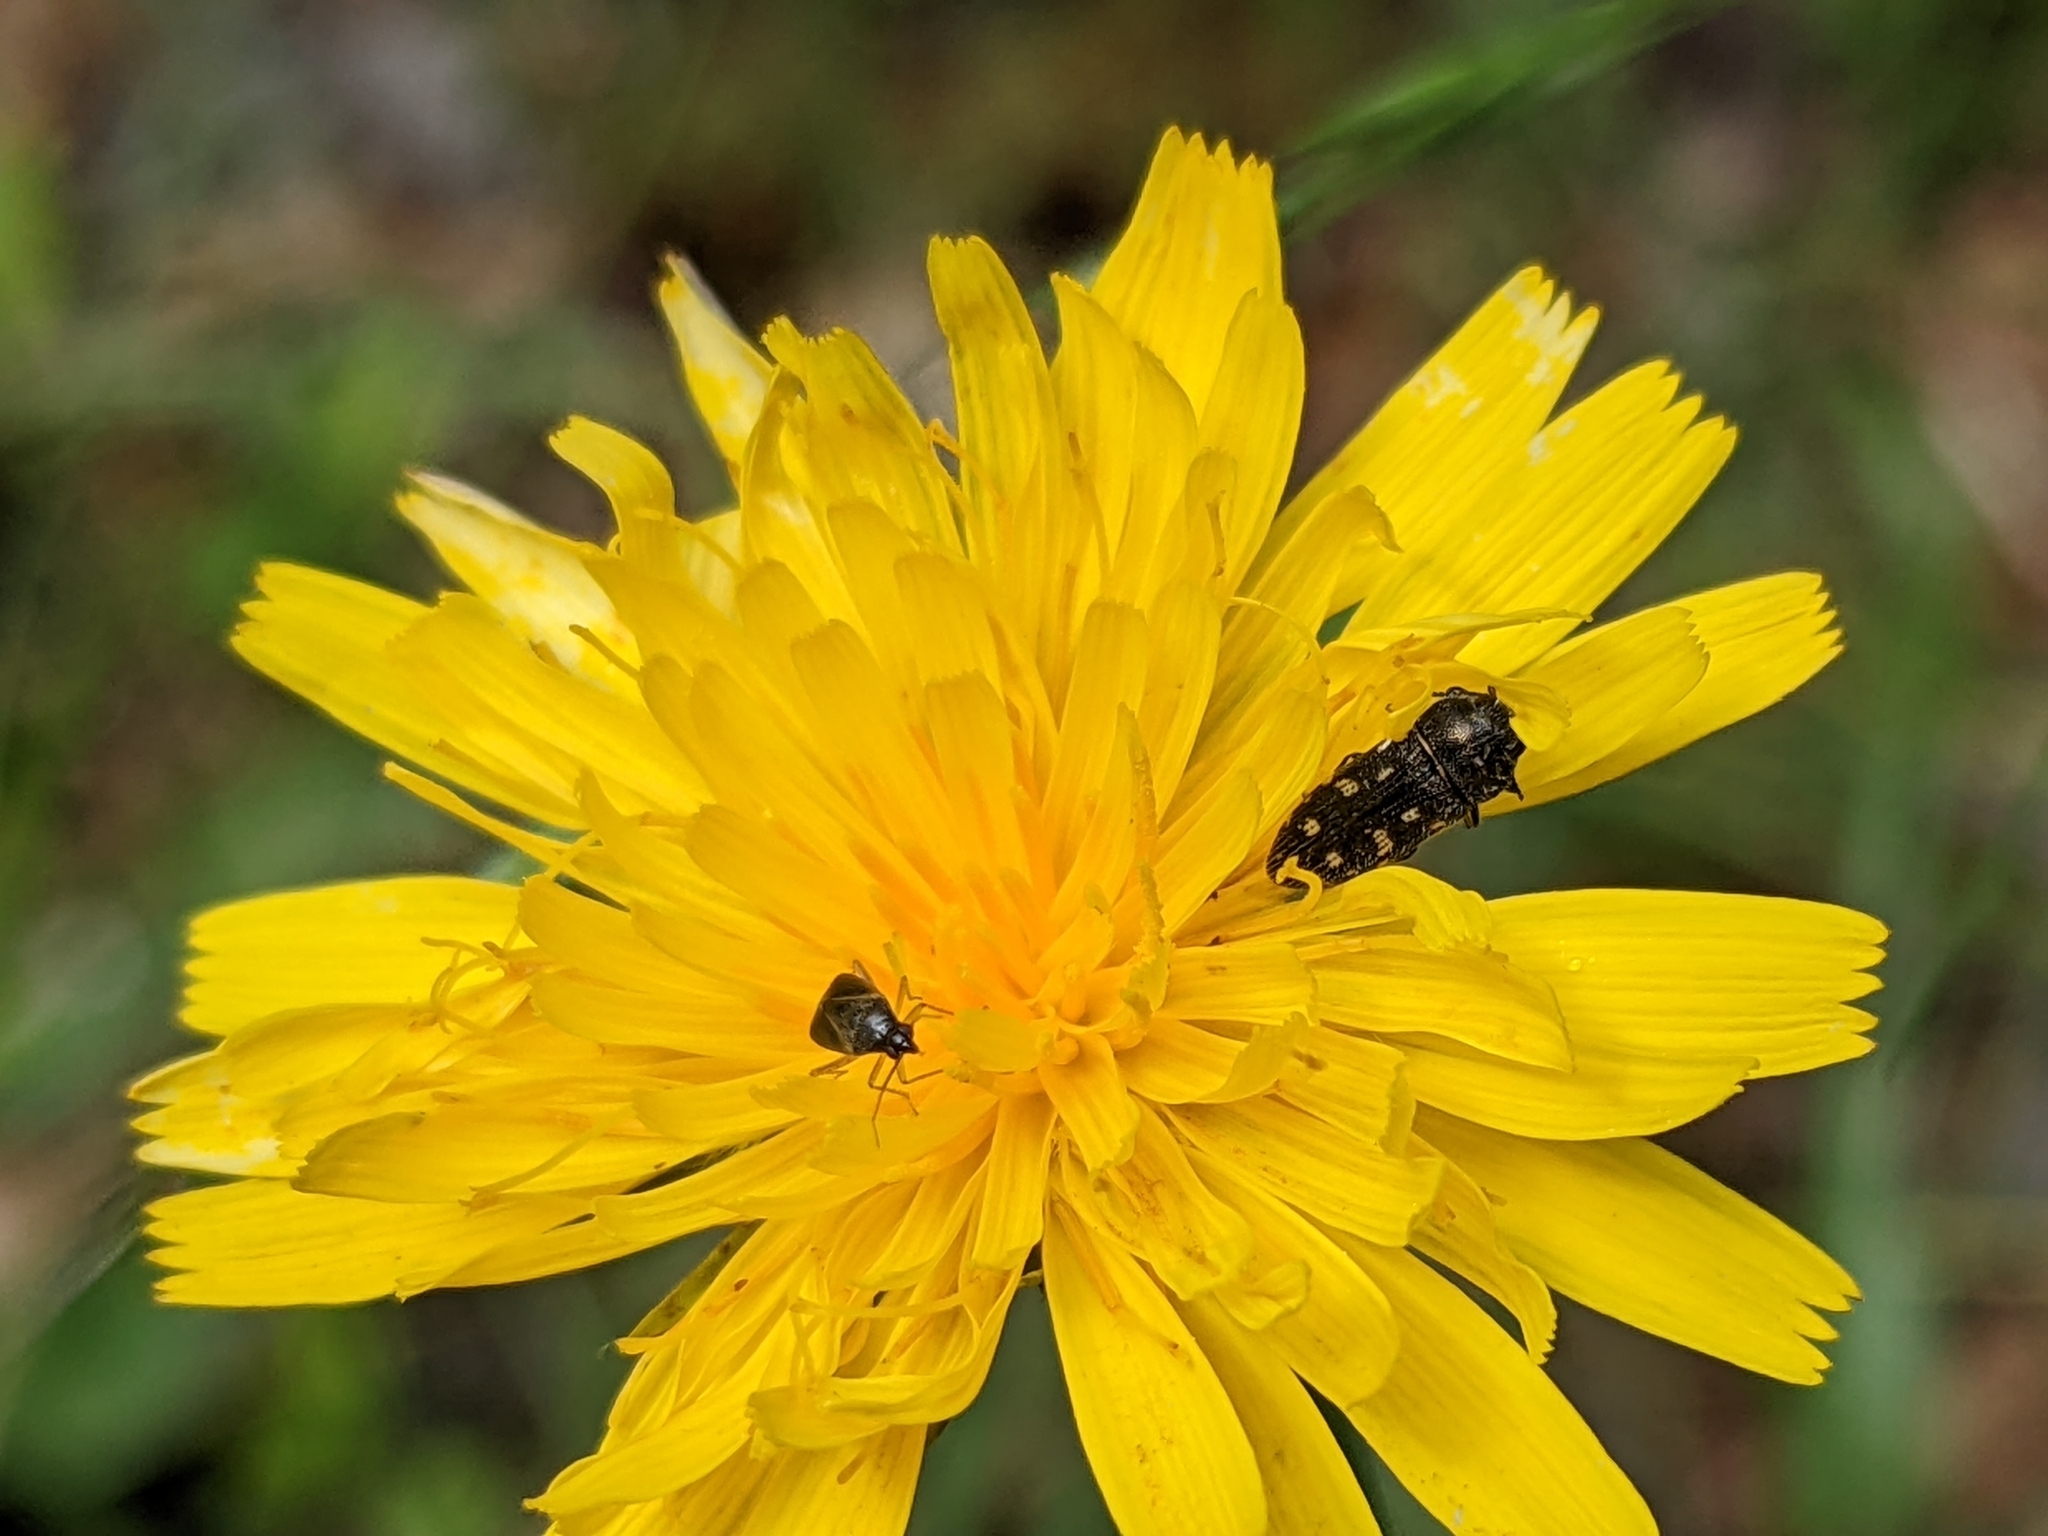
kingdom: Animalia
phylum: Arthropoda
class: Insecta
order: Coleoptera
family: Buprestidae
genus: Acmaeodera
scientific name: Acmaeodera tubulus
